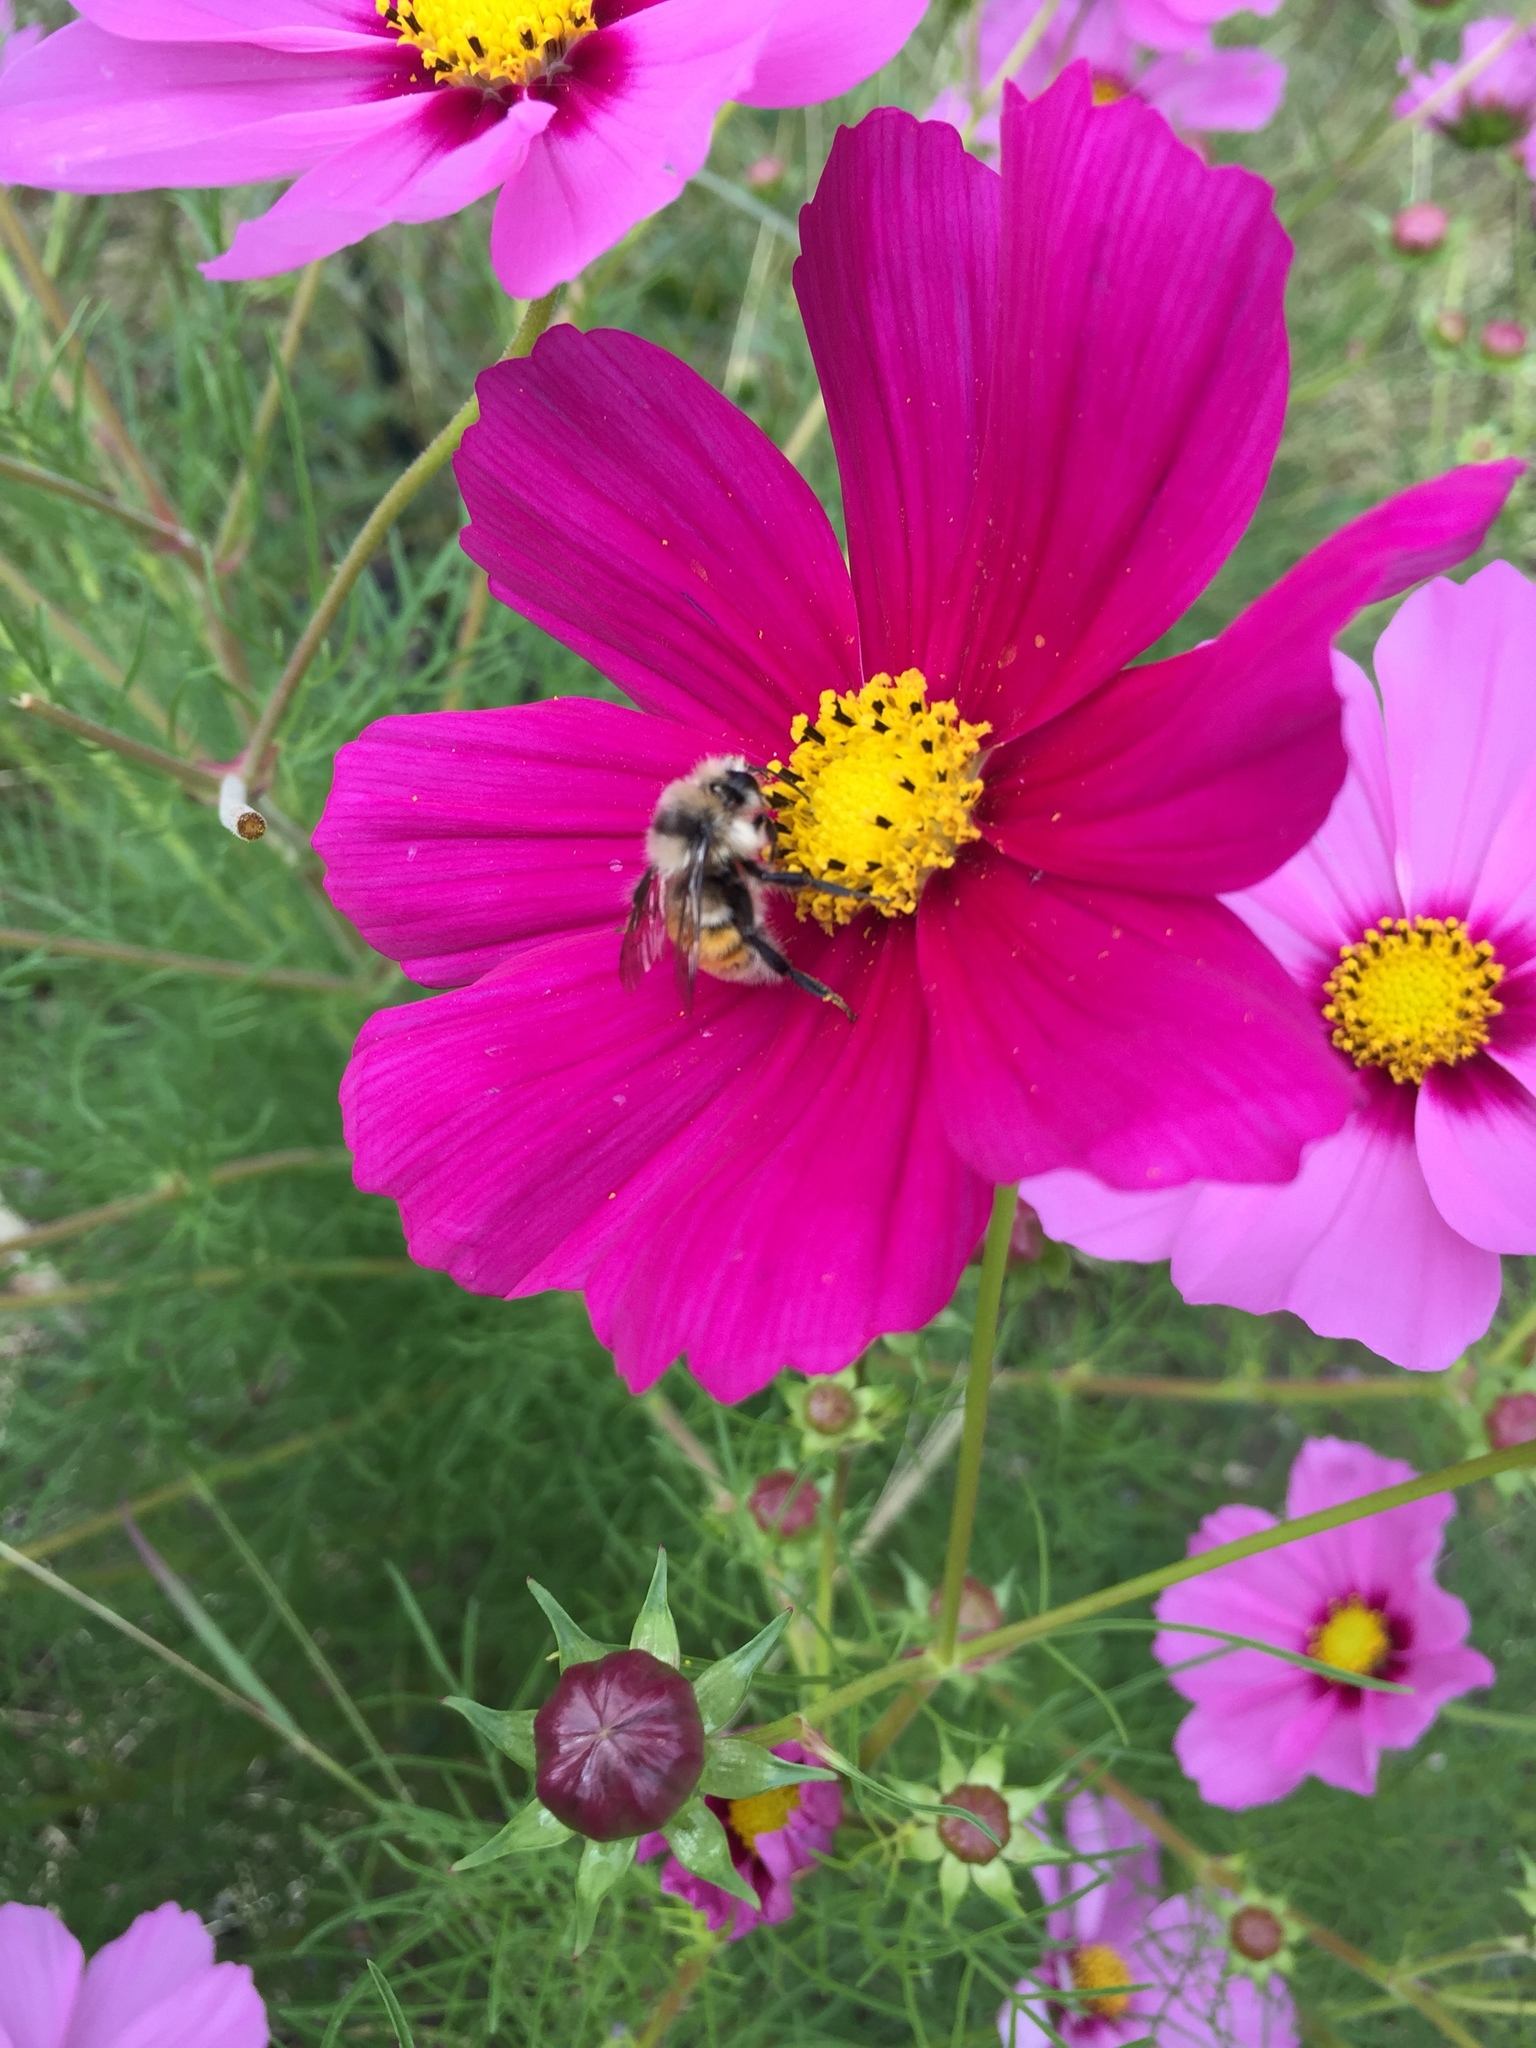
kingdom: Animalia
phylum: Arthropoda
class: Insecta
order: Hymenoptera
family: Apidae
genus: Bombus
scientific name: Bombus huntii
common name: Hunt bumble bee
